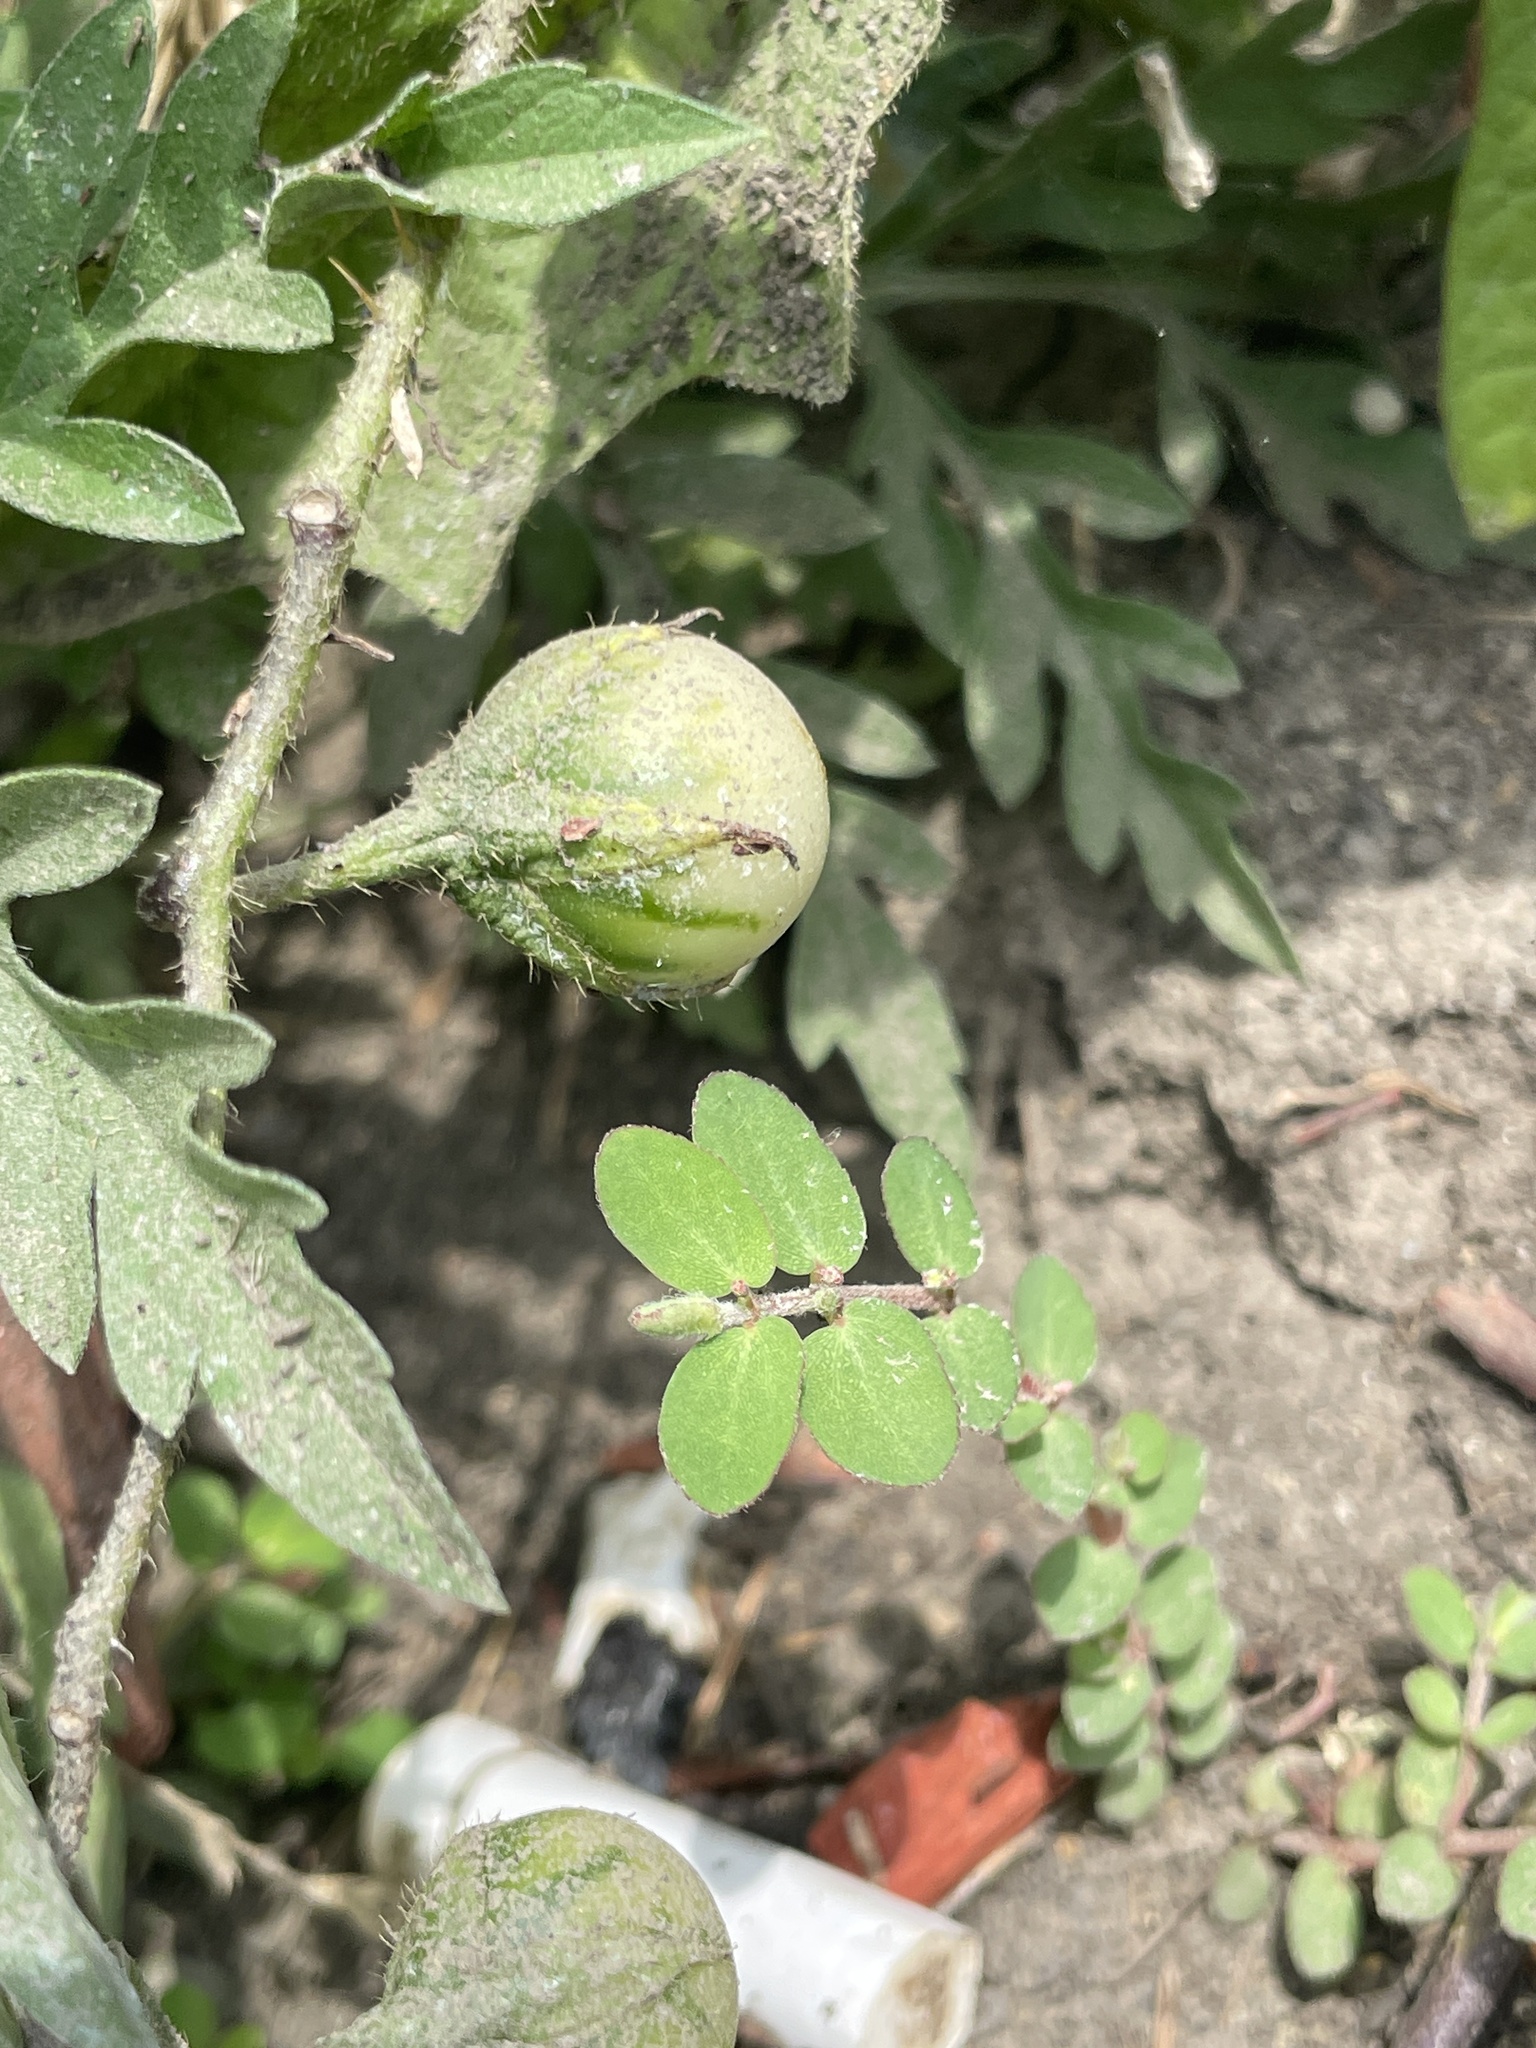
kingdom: Plantae
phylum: Tracheophyta
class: Magnoliopsida
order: Solanales
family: Solanaceae
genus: Solanum
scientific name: Solanum carolinense
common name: Horse-nettle
